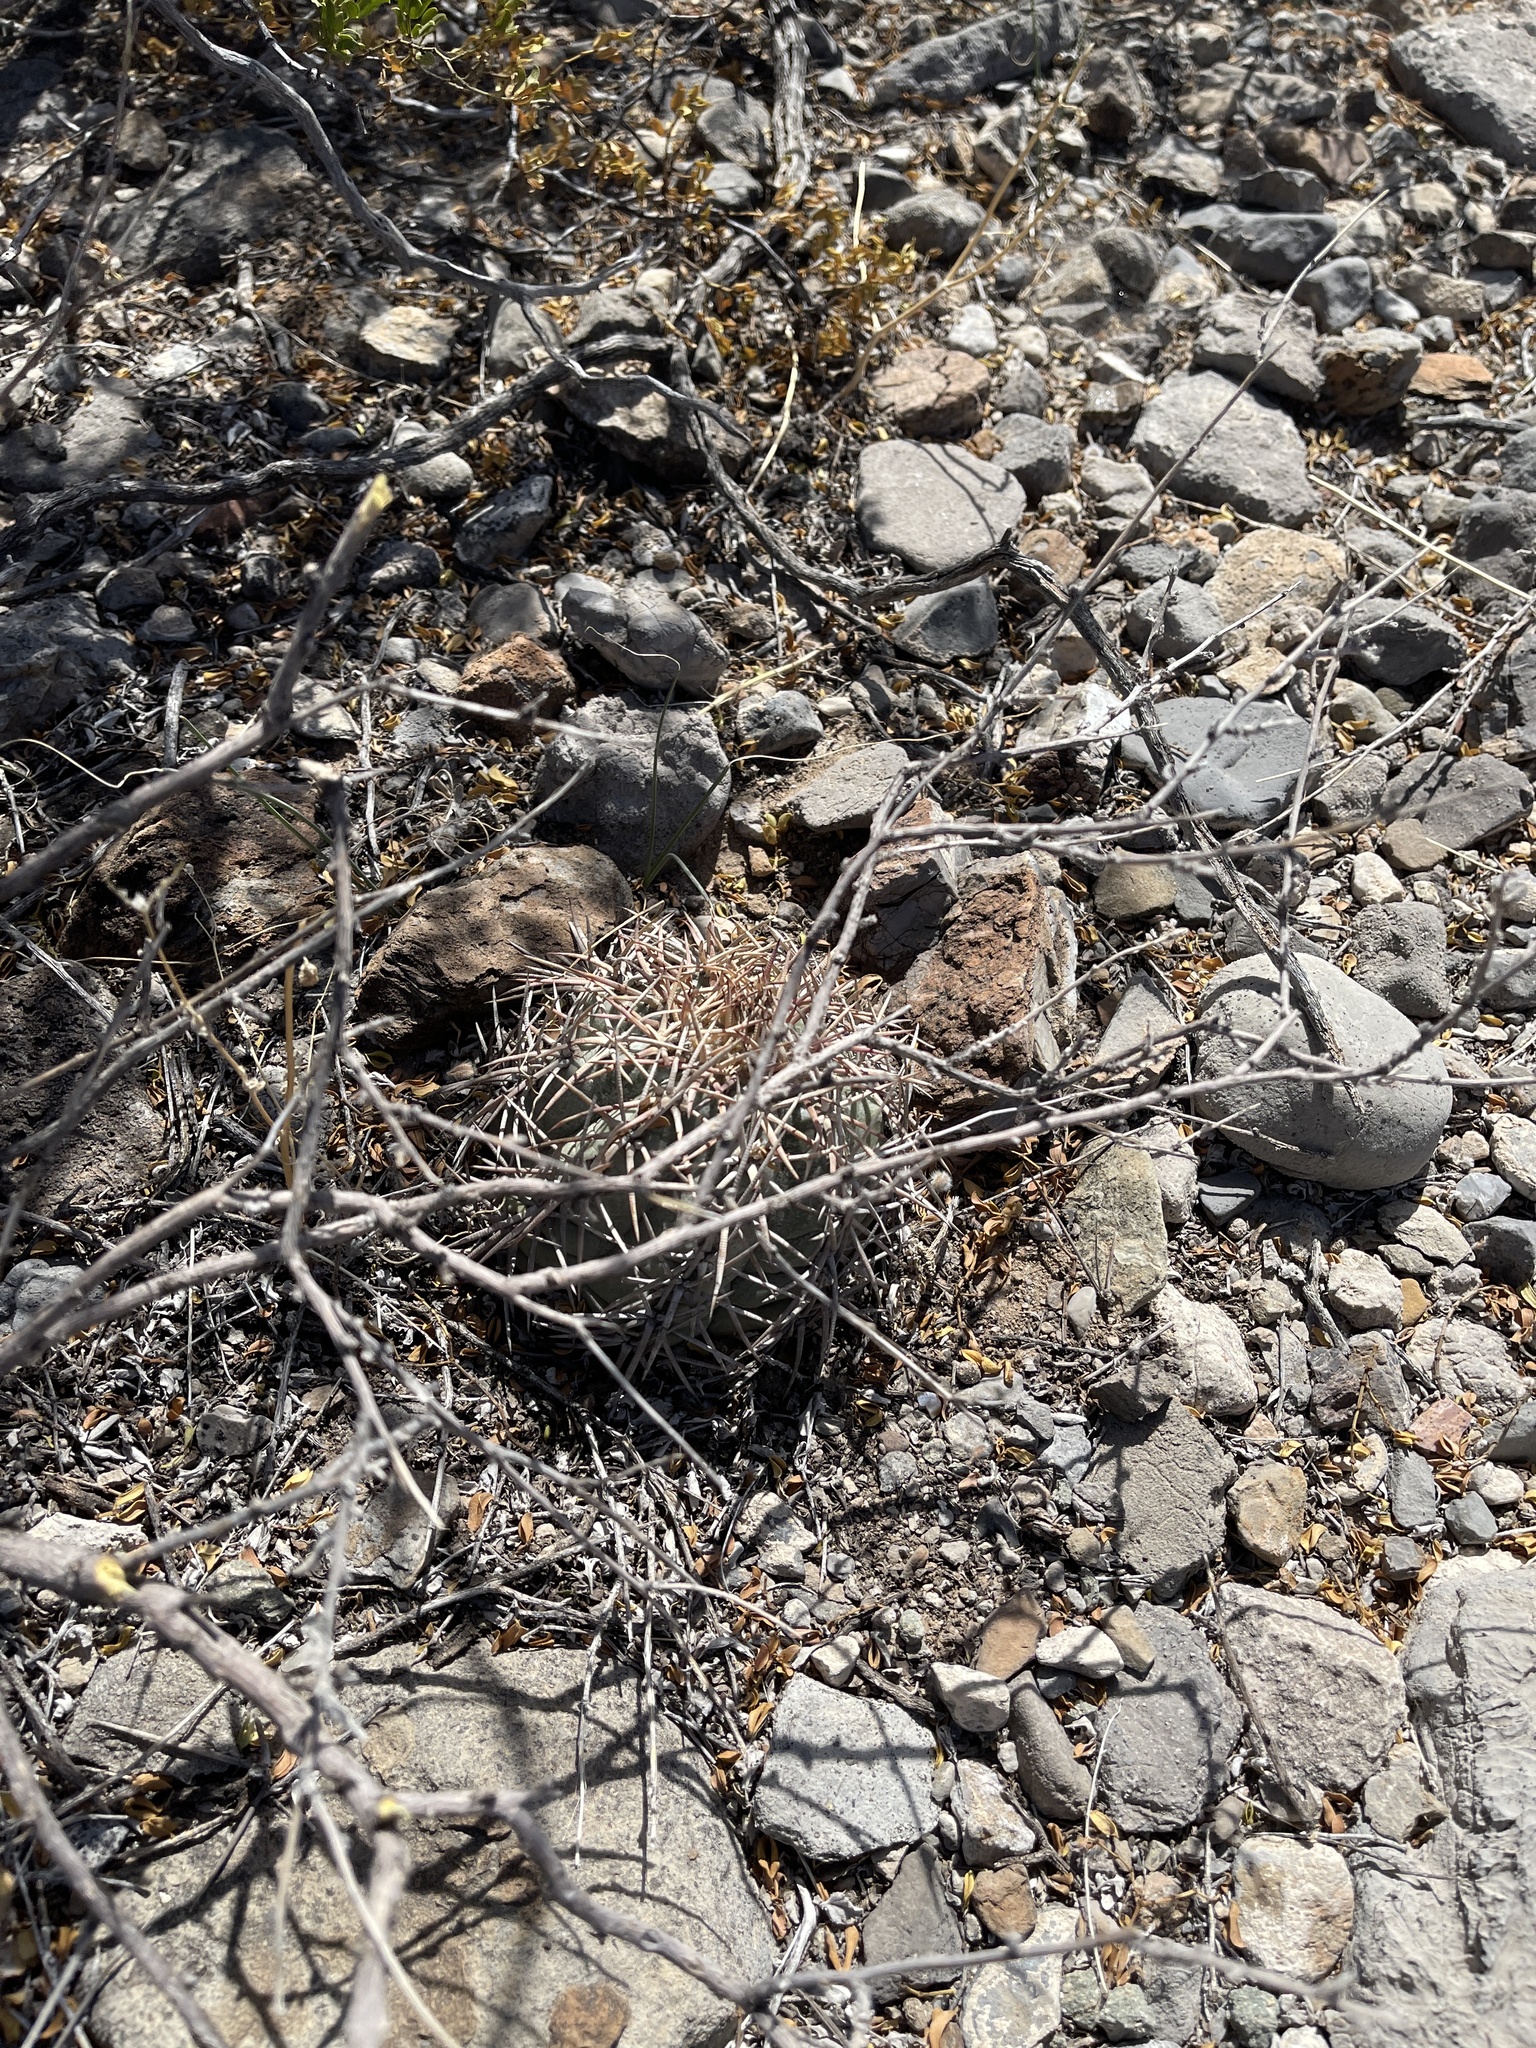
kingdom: Plantae
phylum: Tracheophyta
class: Magnoliopsida
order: Caryophyllales
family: Cactaceae
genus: Echinocactus
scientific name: Echinocactus horizonthalonius
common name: Devilshead
